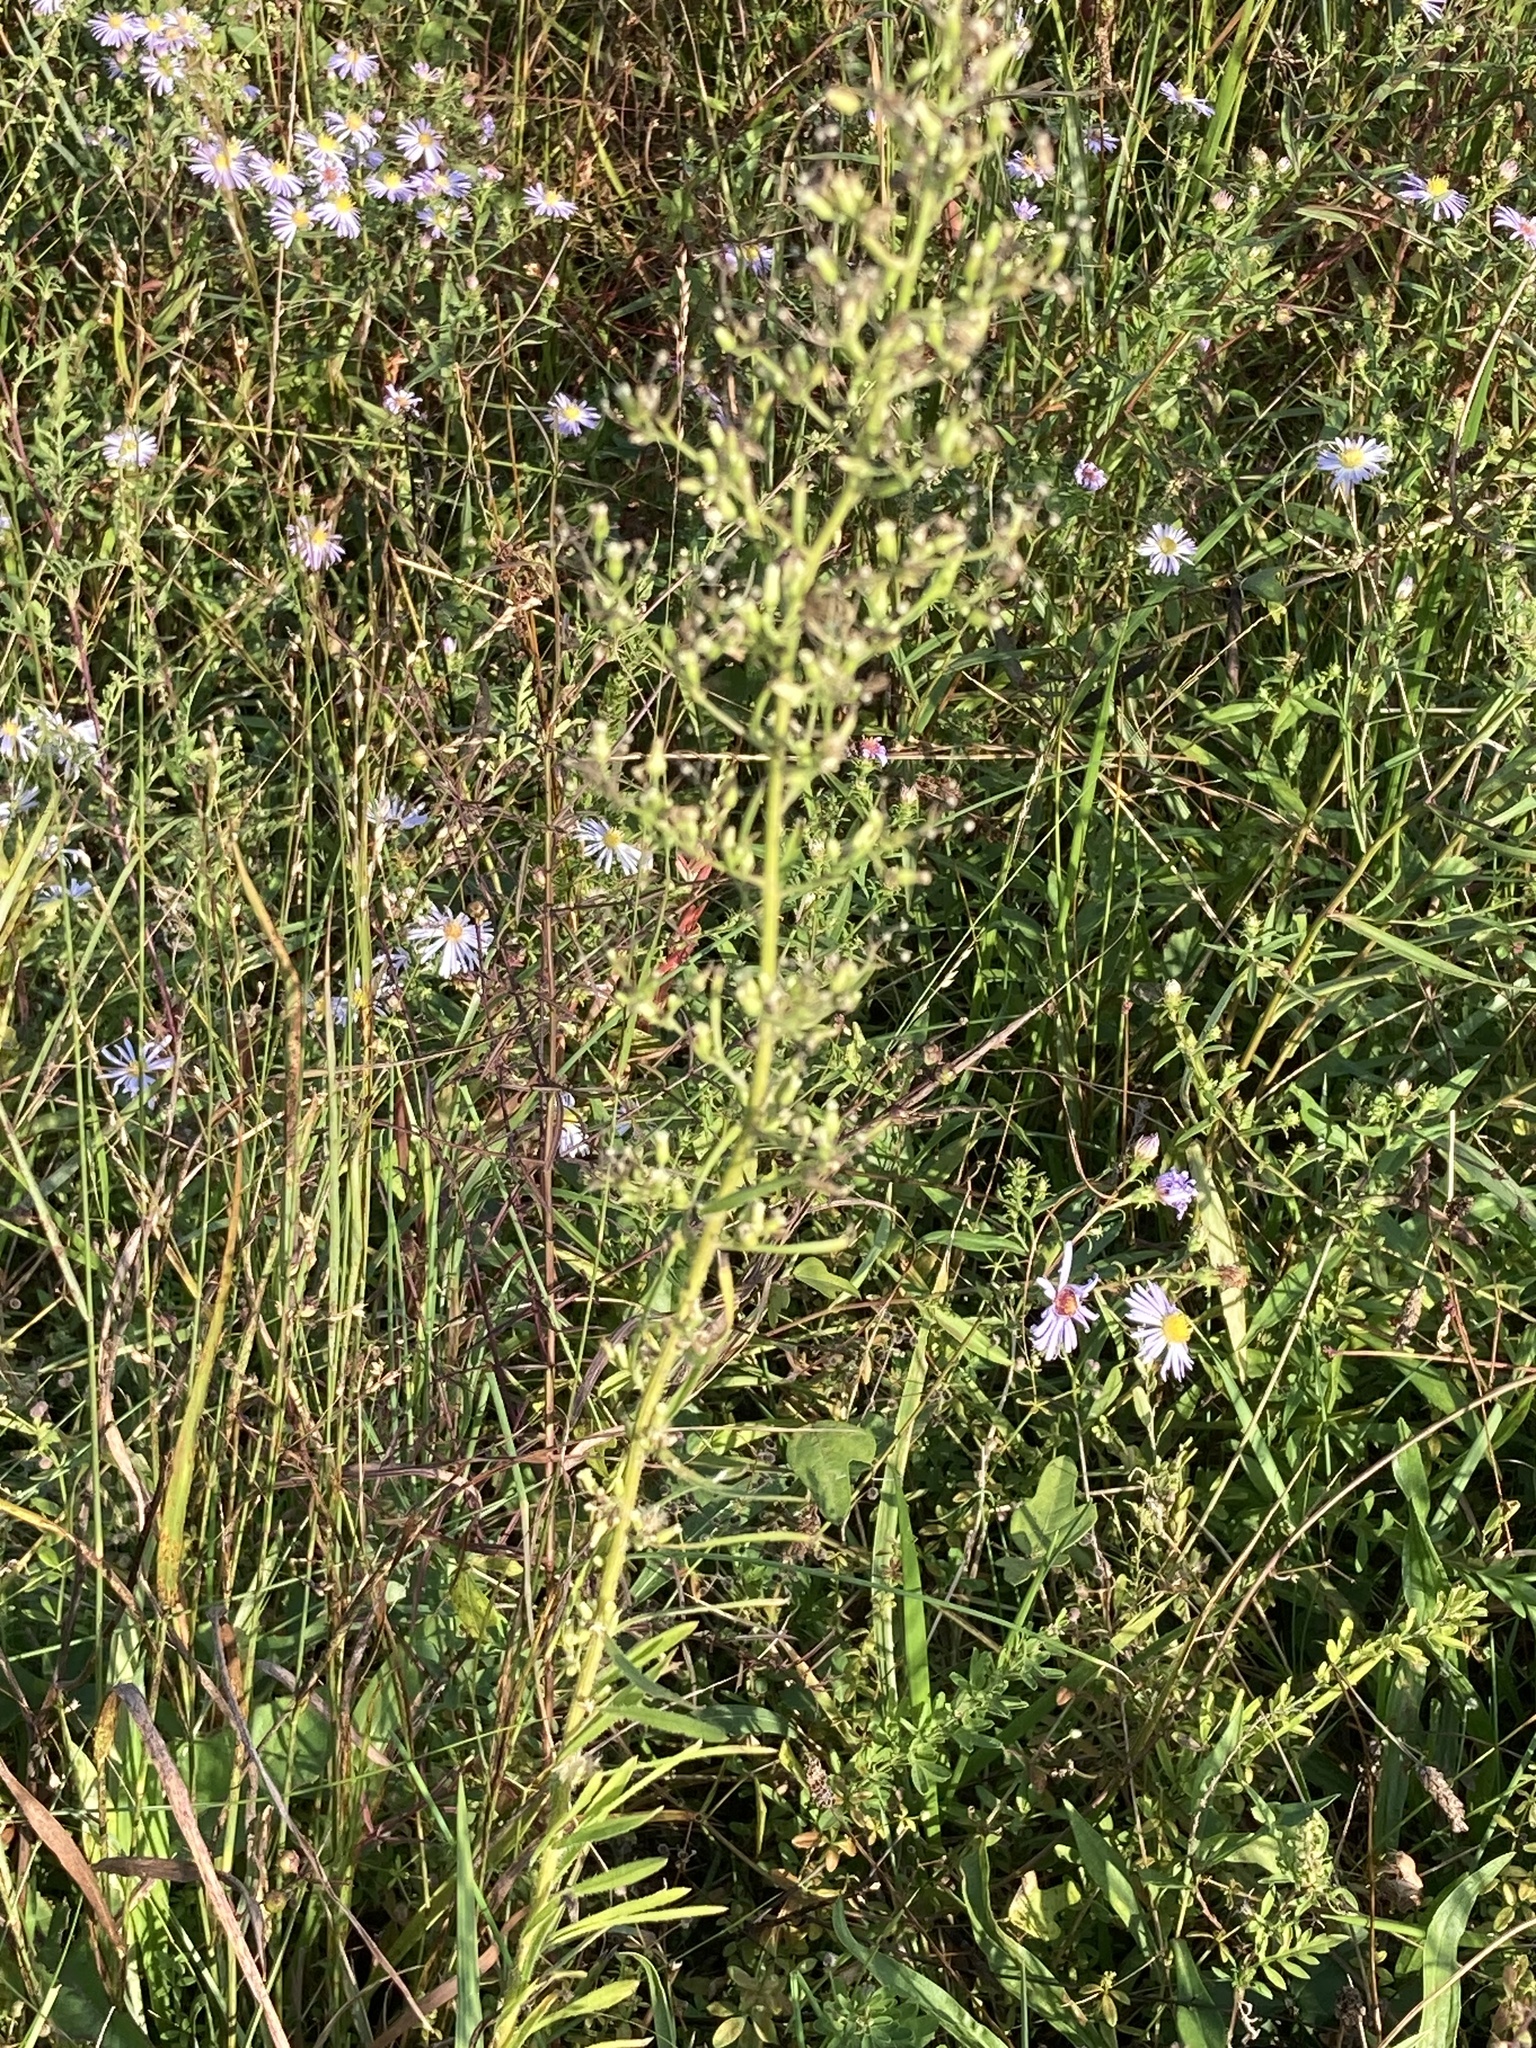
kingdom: Plantae
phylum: Tracheophyta
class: Magnoliopsida
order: Asterales
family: Asteraceae
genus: Erigeron
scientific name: Erigeron canadensis
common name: Canadian fleabane
